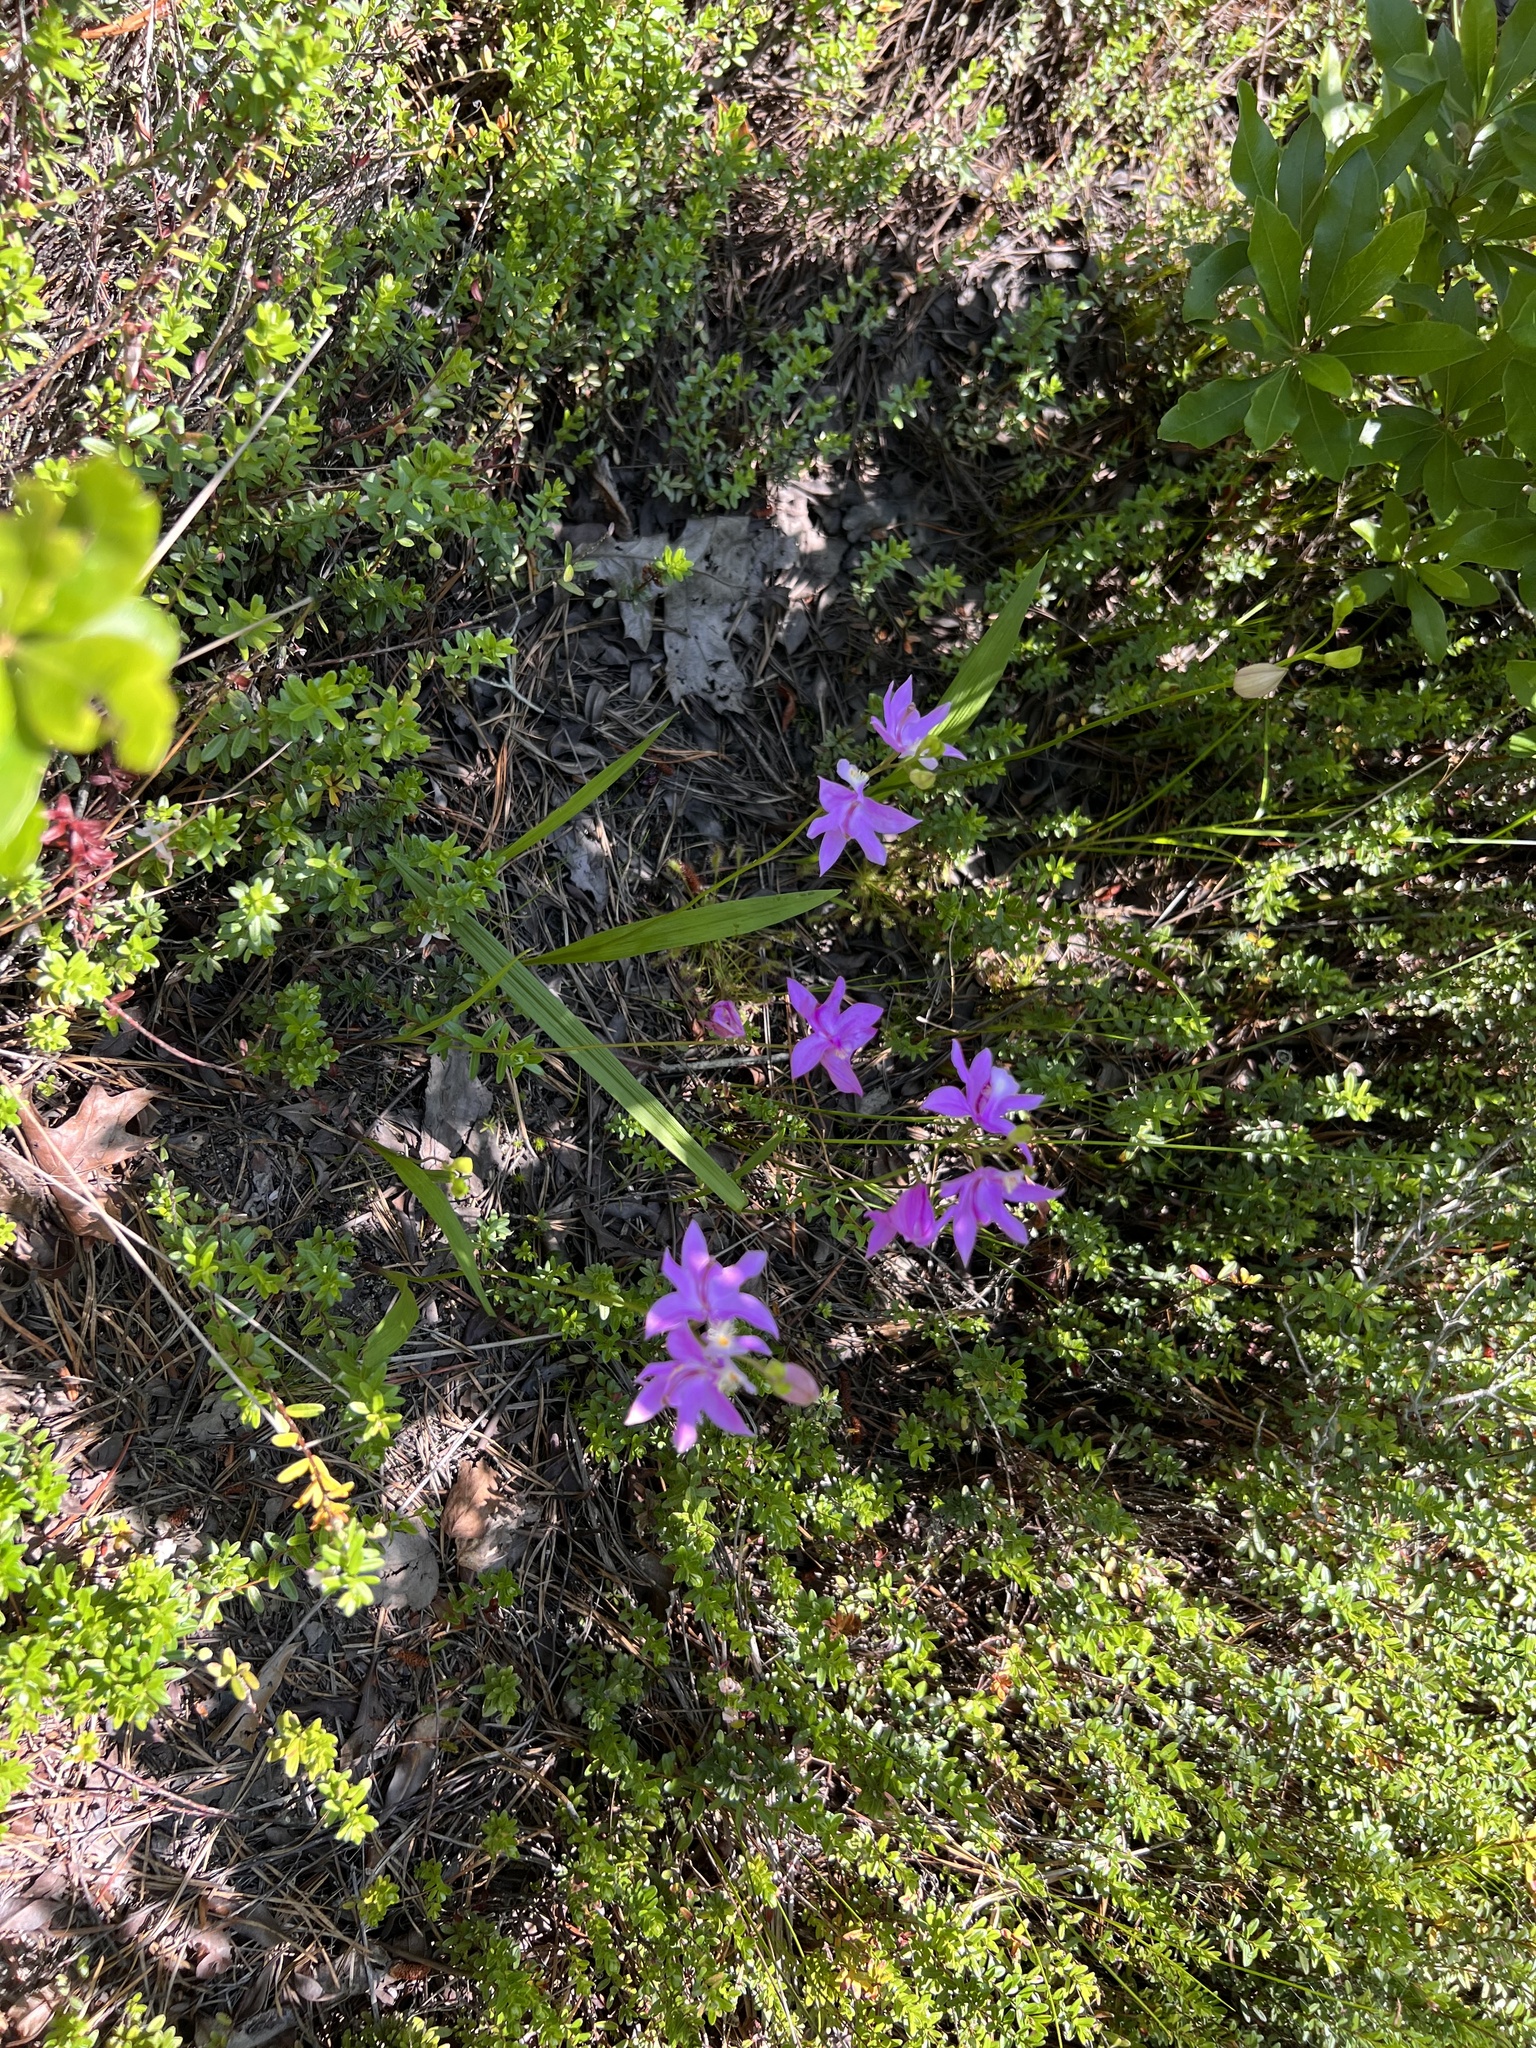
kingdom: Plantae
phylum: Tracheophyta
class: Liliopsida
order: Asparagales
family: Orchidaceae
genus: Calopogon
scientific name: Calopogon tuberosus
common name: Grass-pink
